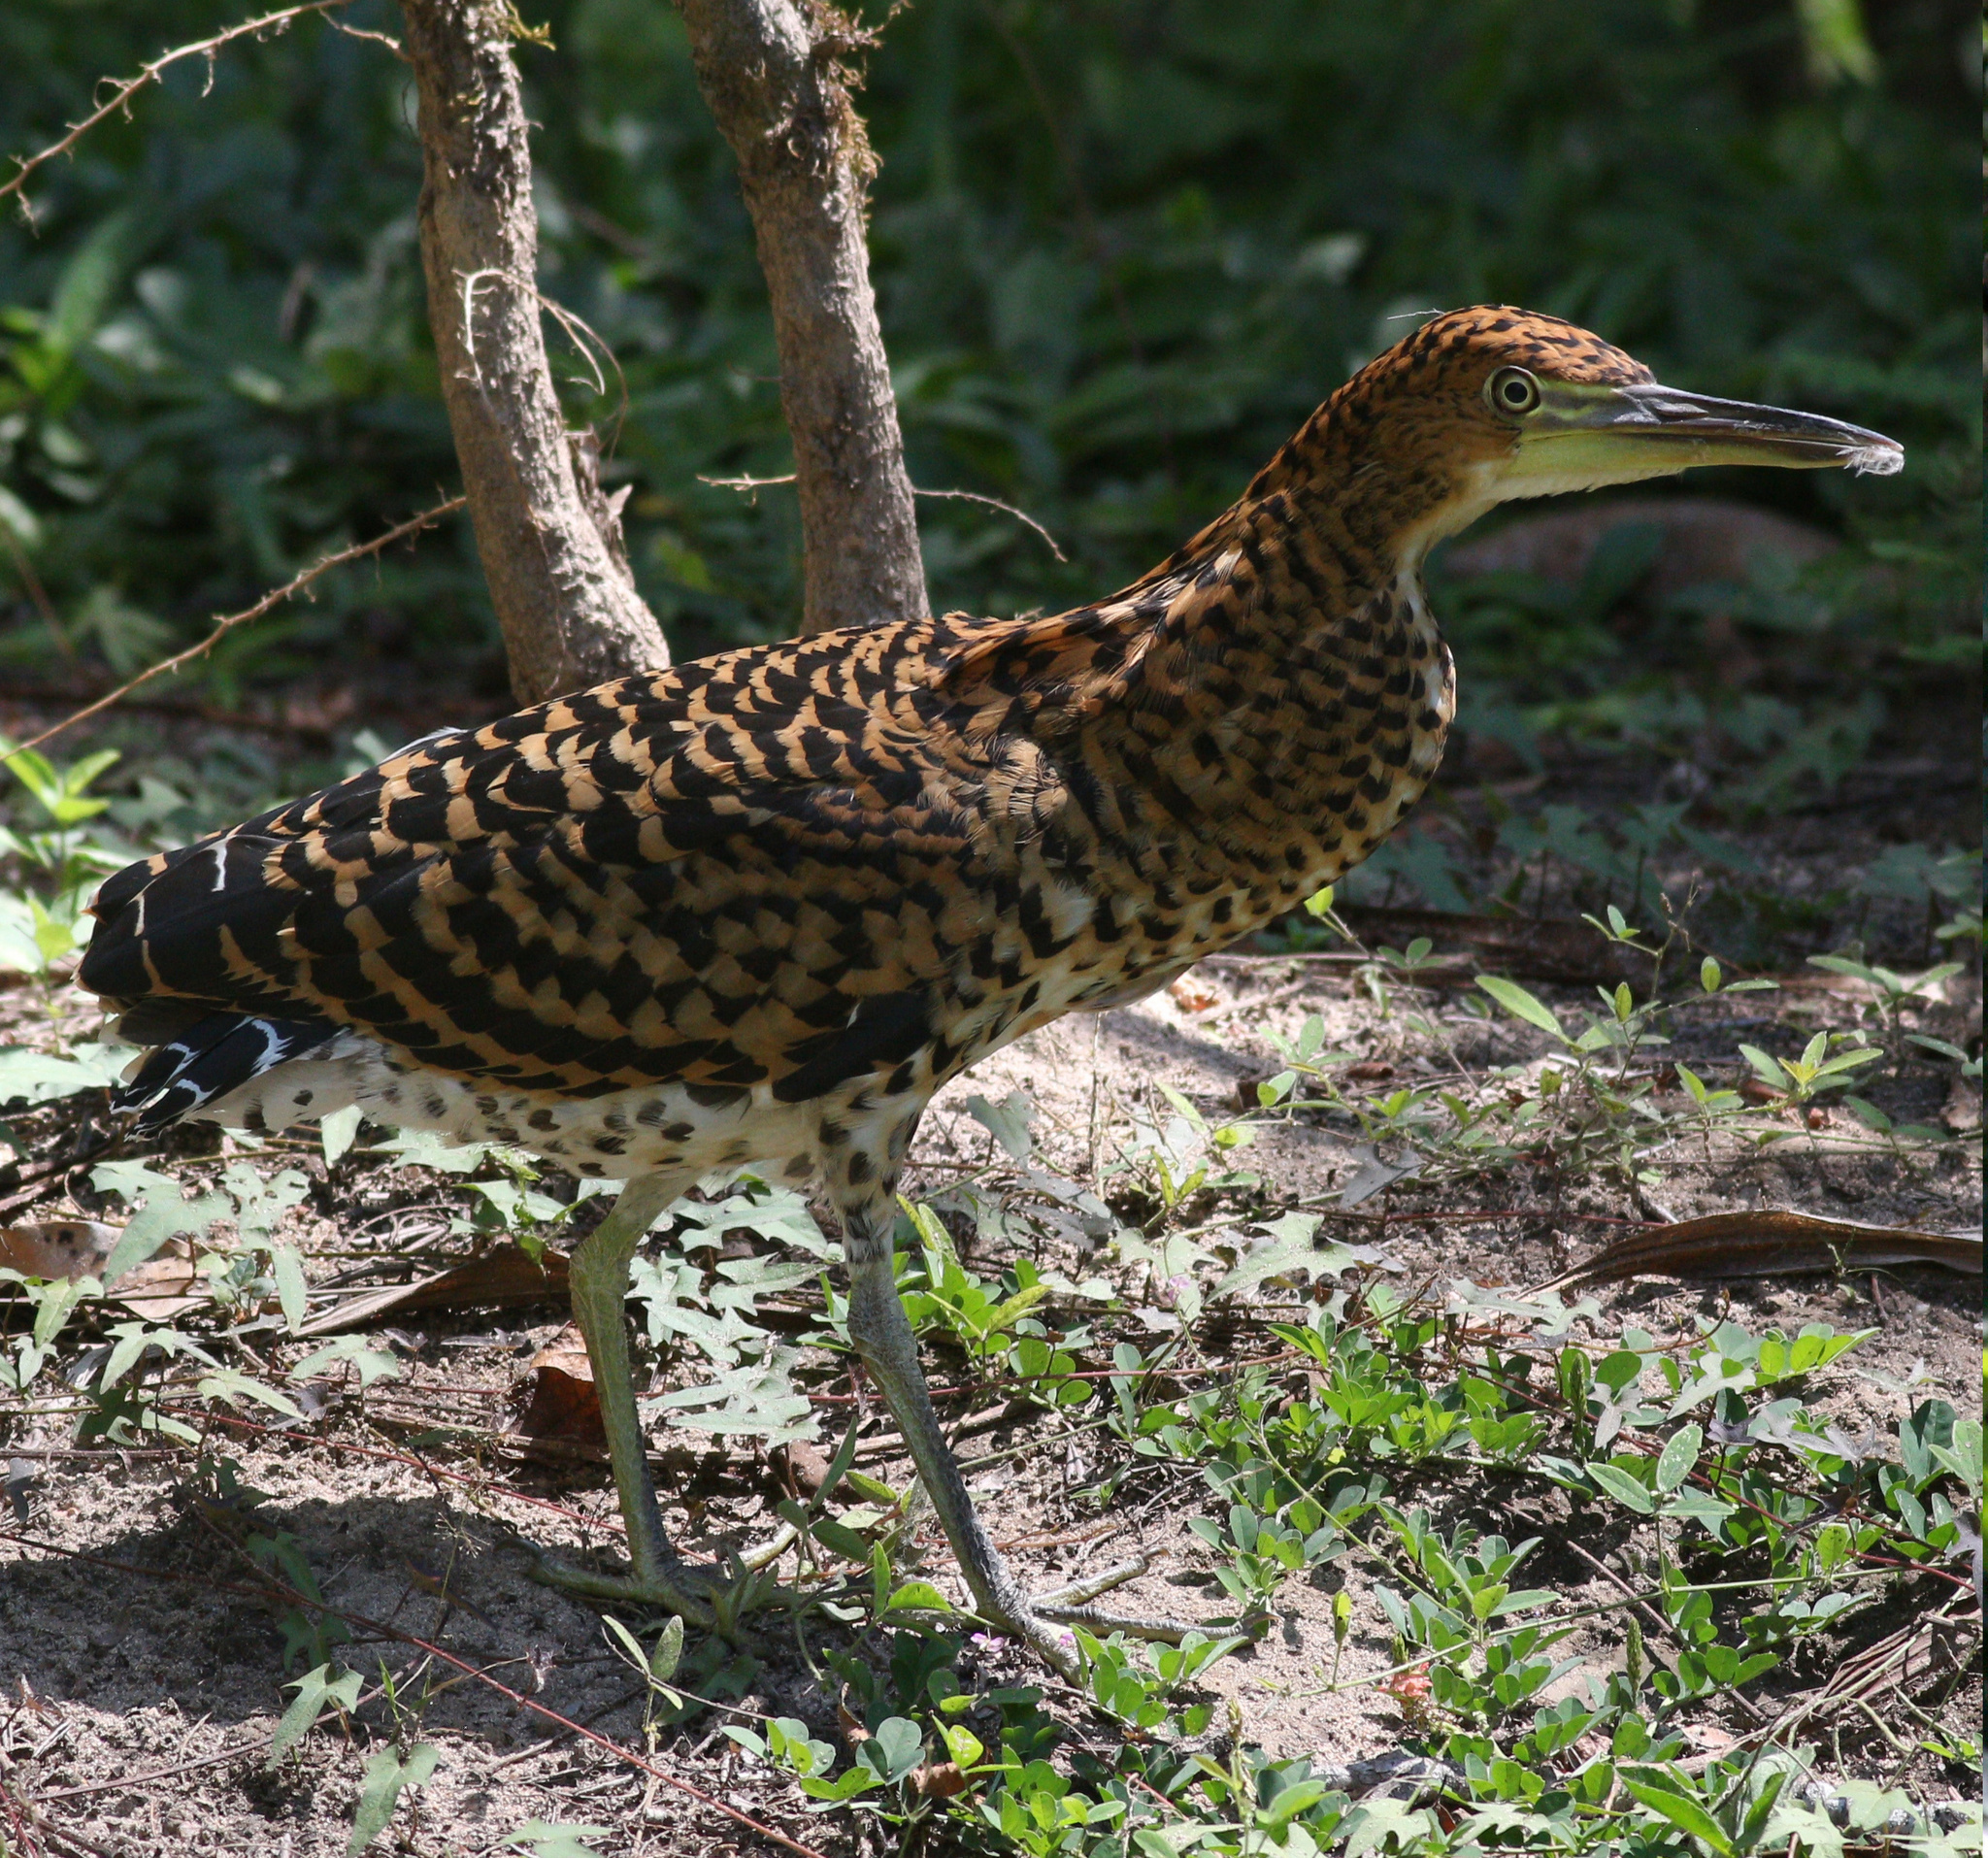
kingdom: Animalia
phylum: Chordata
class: Aves
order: Pelecaniformes
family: Ardeidae
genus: Tigrisoma
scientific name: Tigrisoma fasciatum
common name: Fasciated tiger-heron
